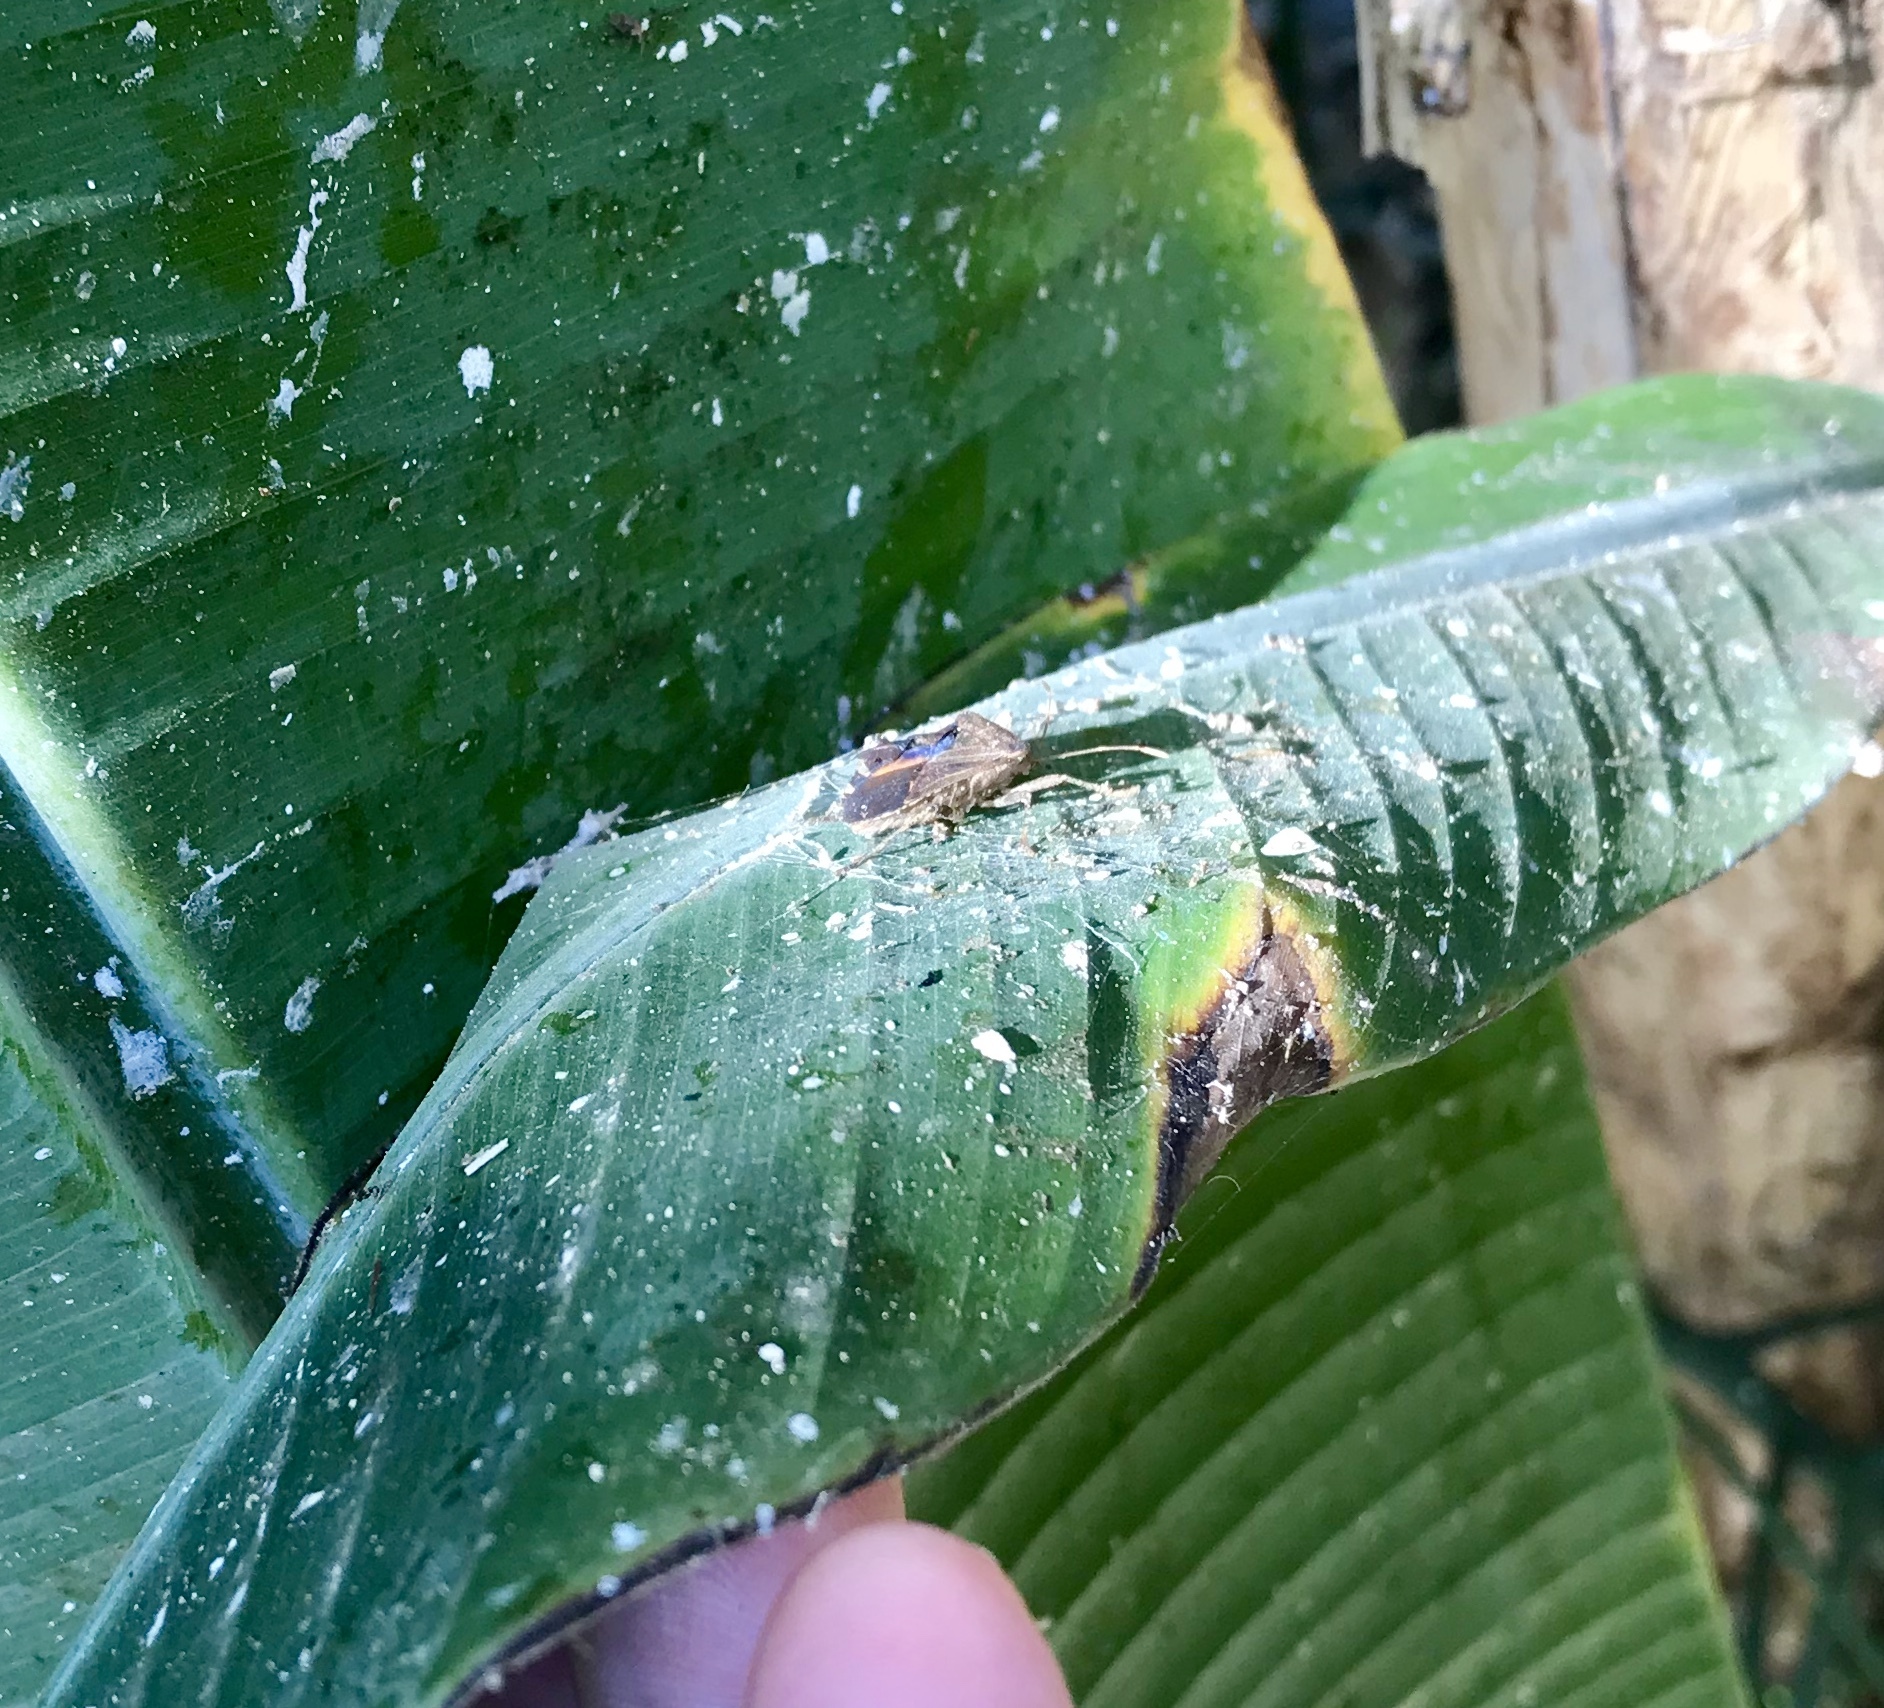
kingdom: Animalia
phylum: Arthropoda
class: Insecta
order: Hemiptera
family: Coreidae
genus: Anasa
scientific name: Anasa scorbutica
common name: Squash bug
